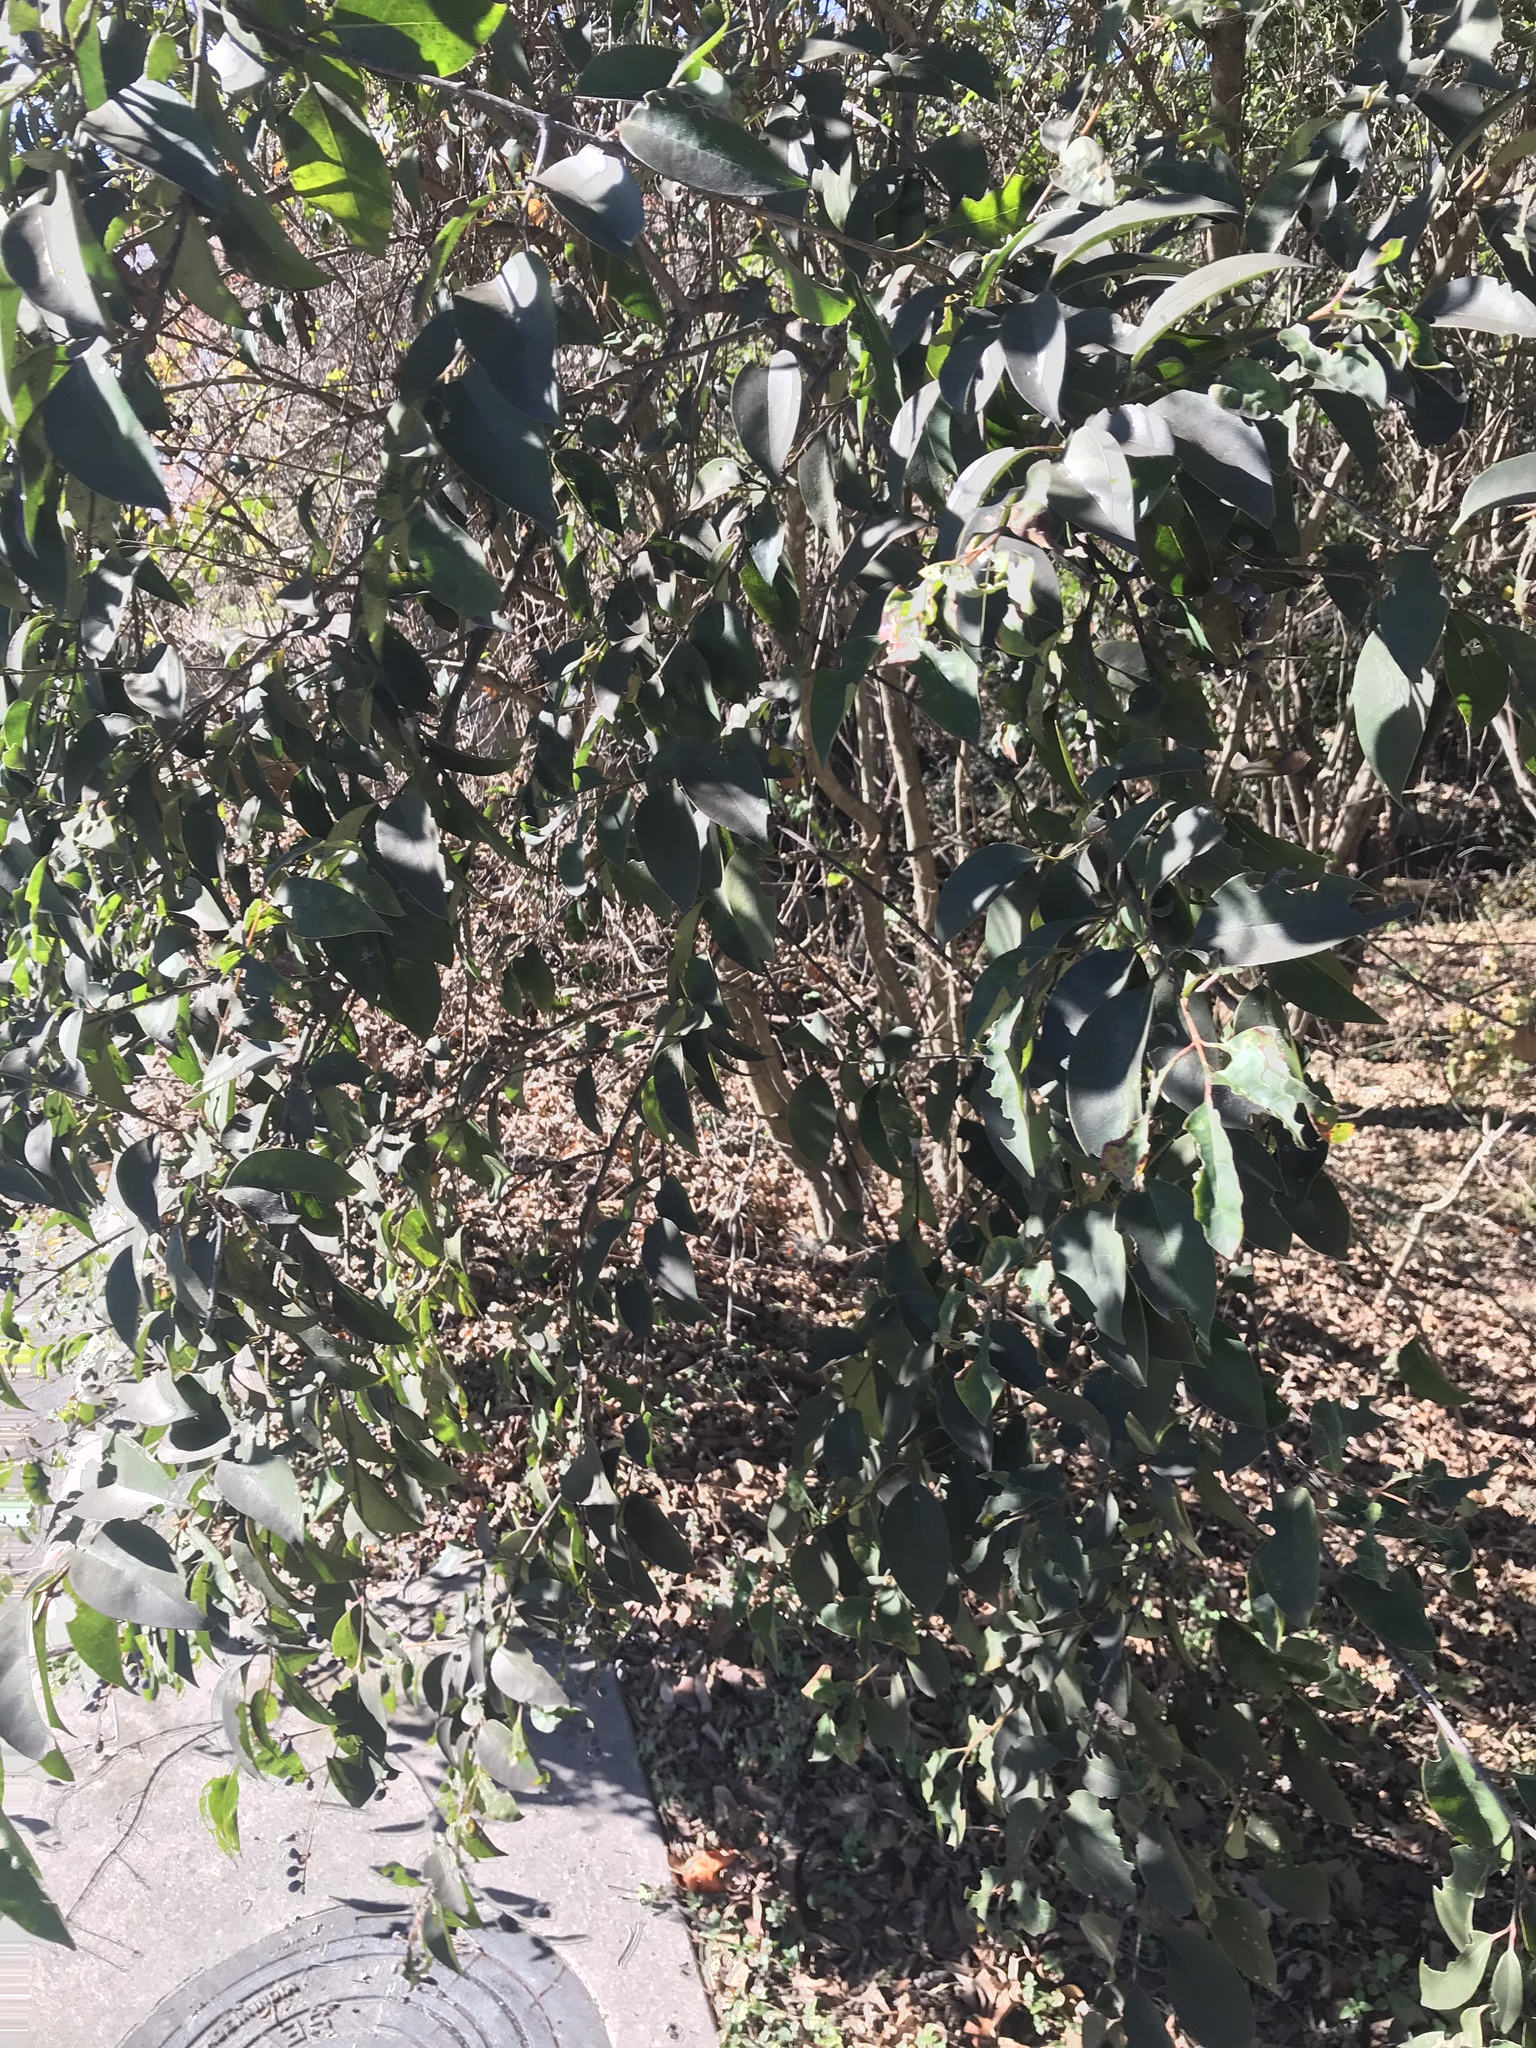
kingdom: Plantae
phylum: Tracheophyta
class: Magnoliopsida
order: Lamiales
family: Oleaceae
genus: Ligustrum
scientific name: Ligustrum lucidum
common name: Glossy privet
